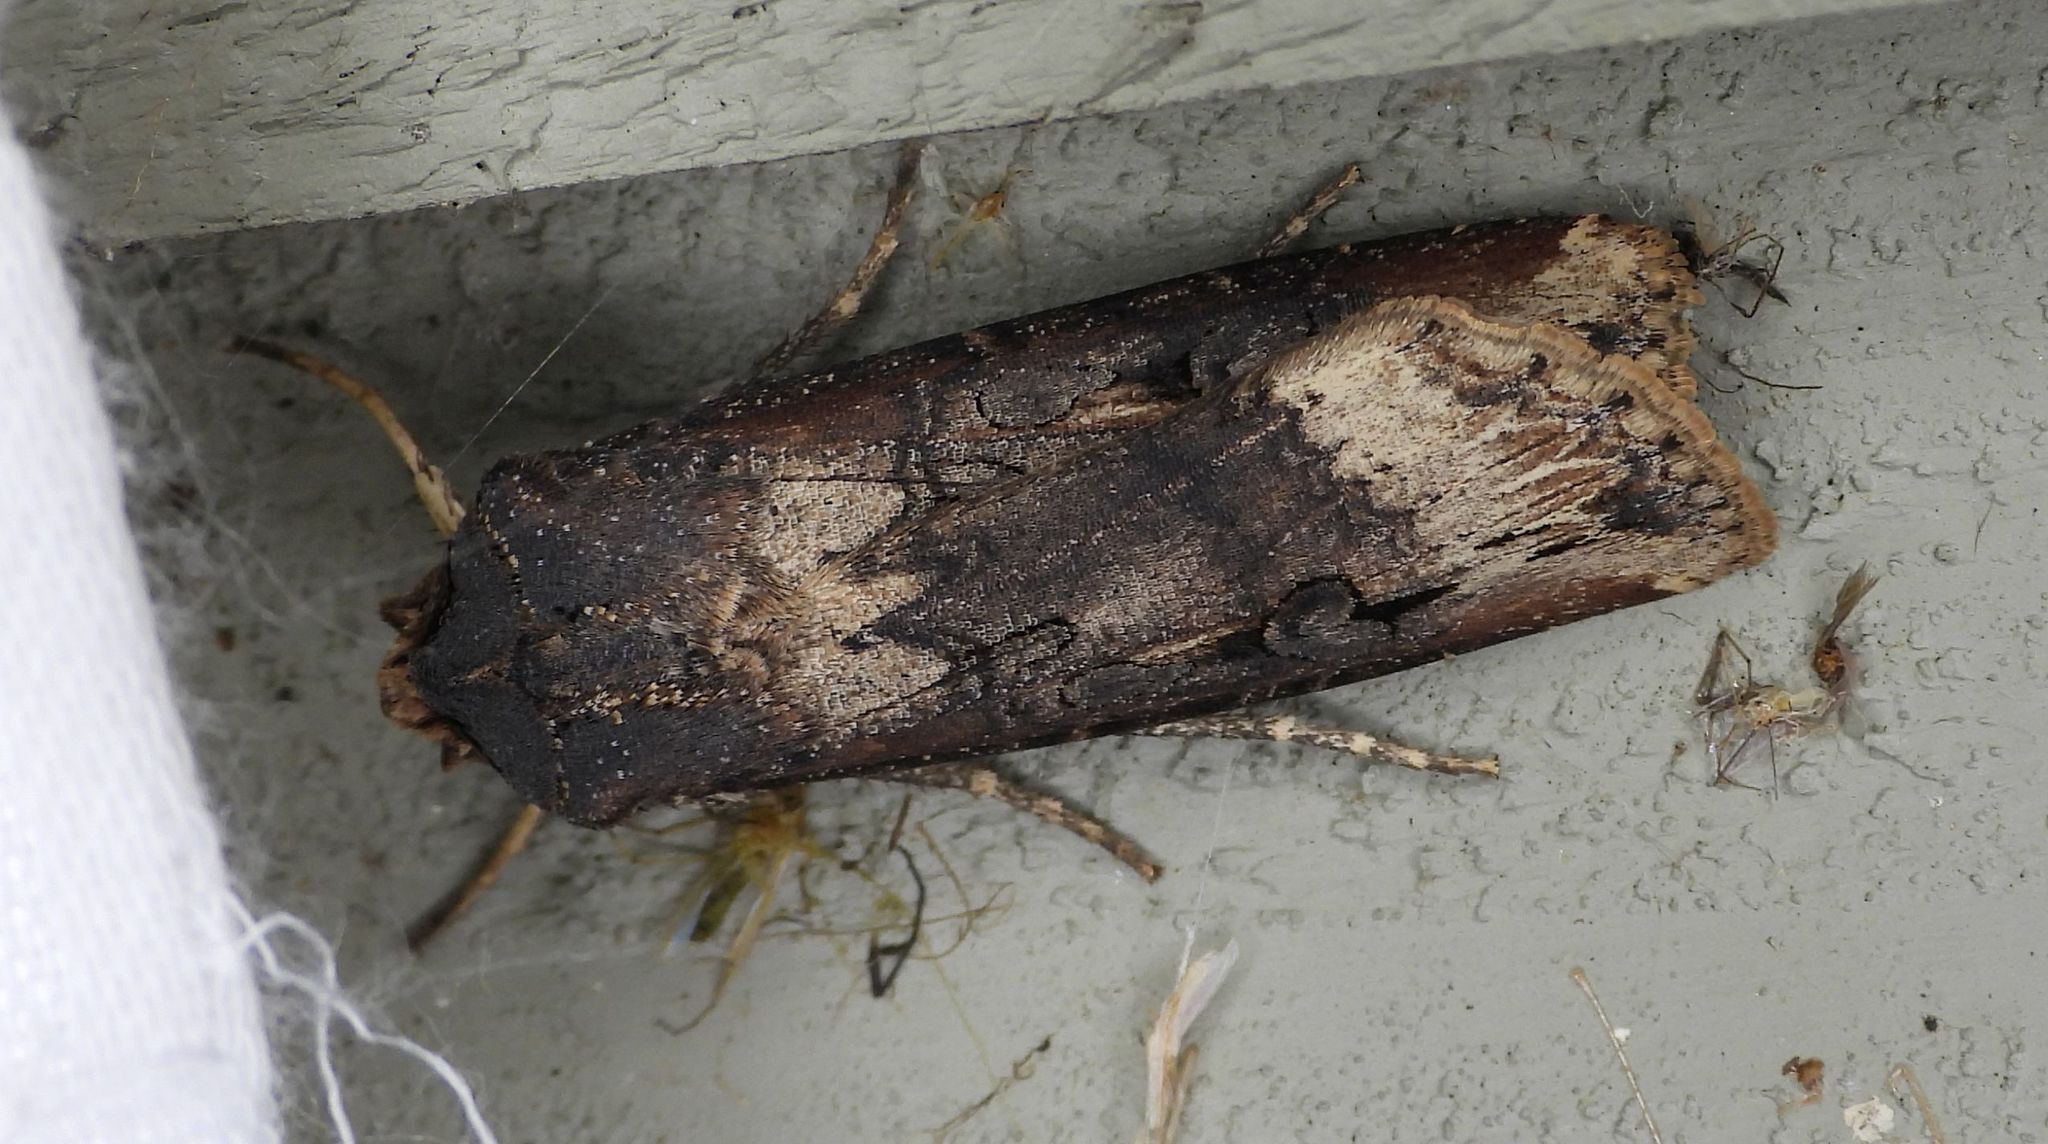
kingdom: Animalia
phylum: Arthropoda
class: Insecta
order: Lepidoptera
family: Noctuidae
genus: Agrotis
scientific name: Agrotis ipsilon
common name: Dark sword-grass
